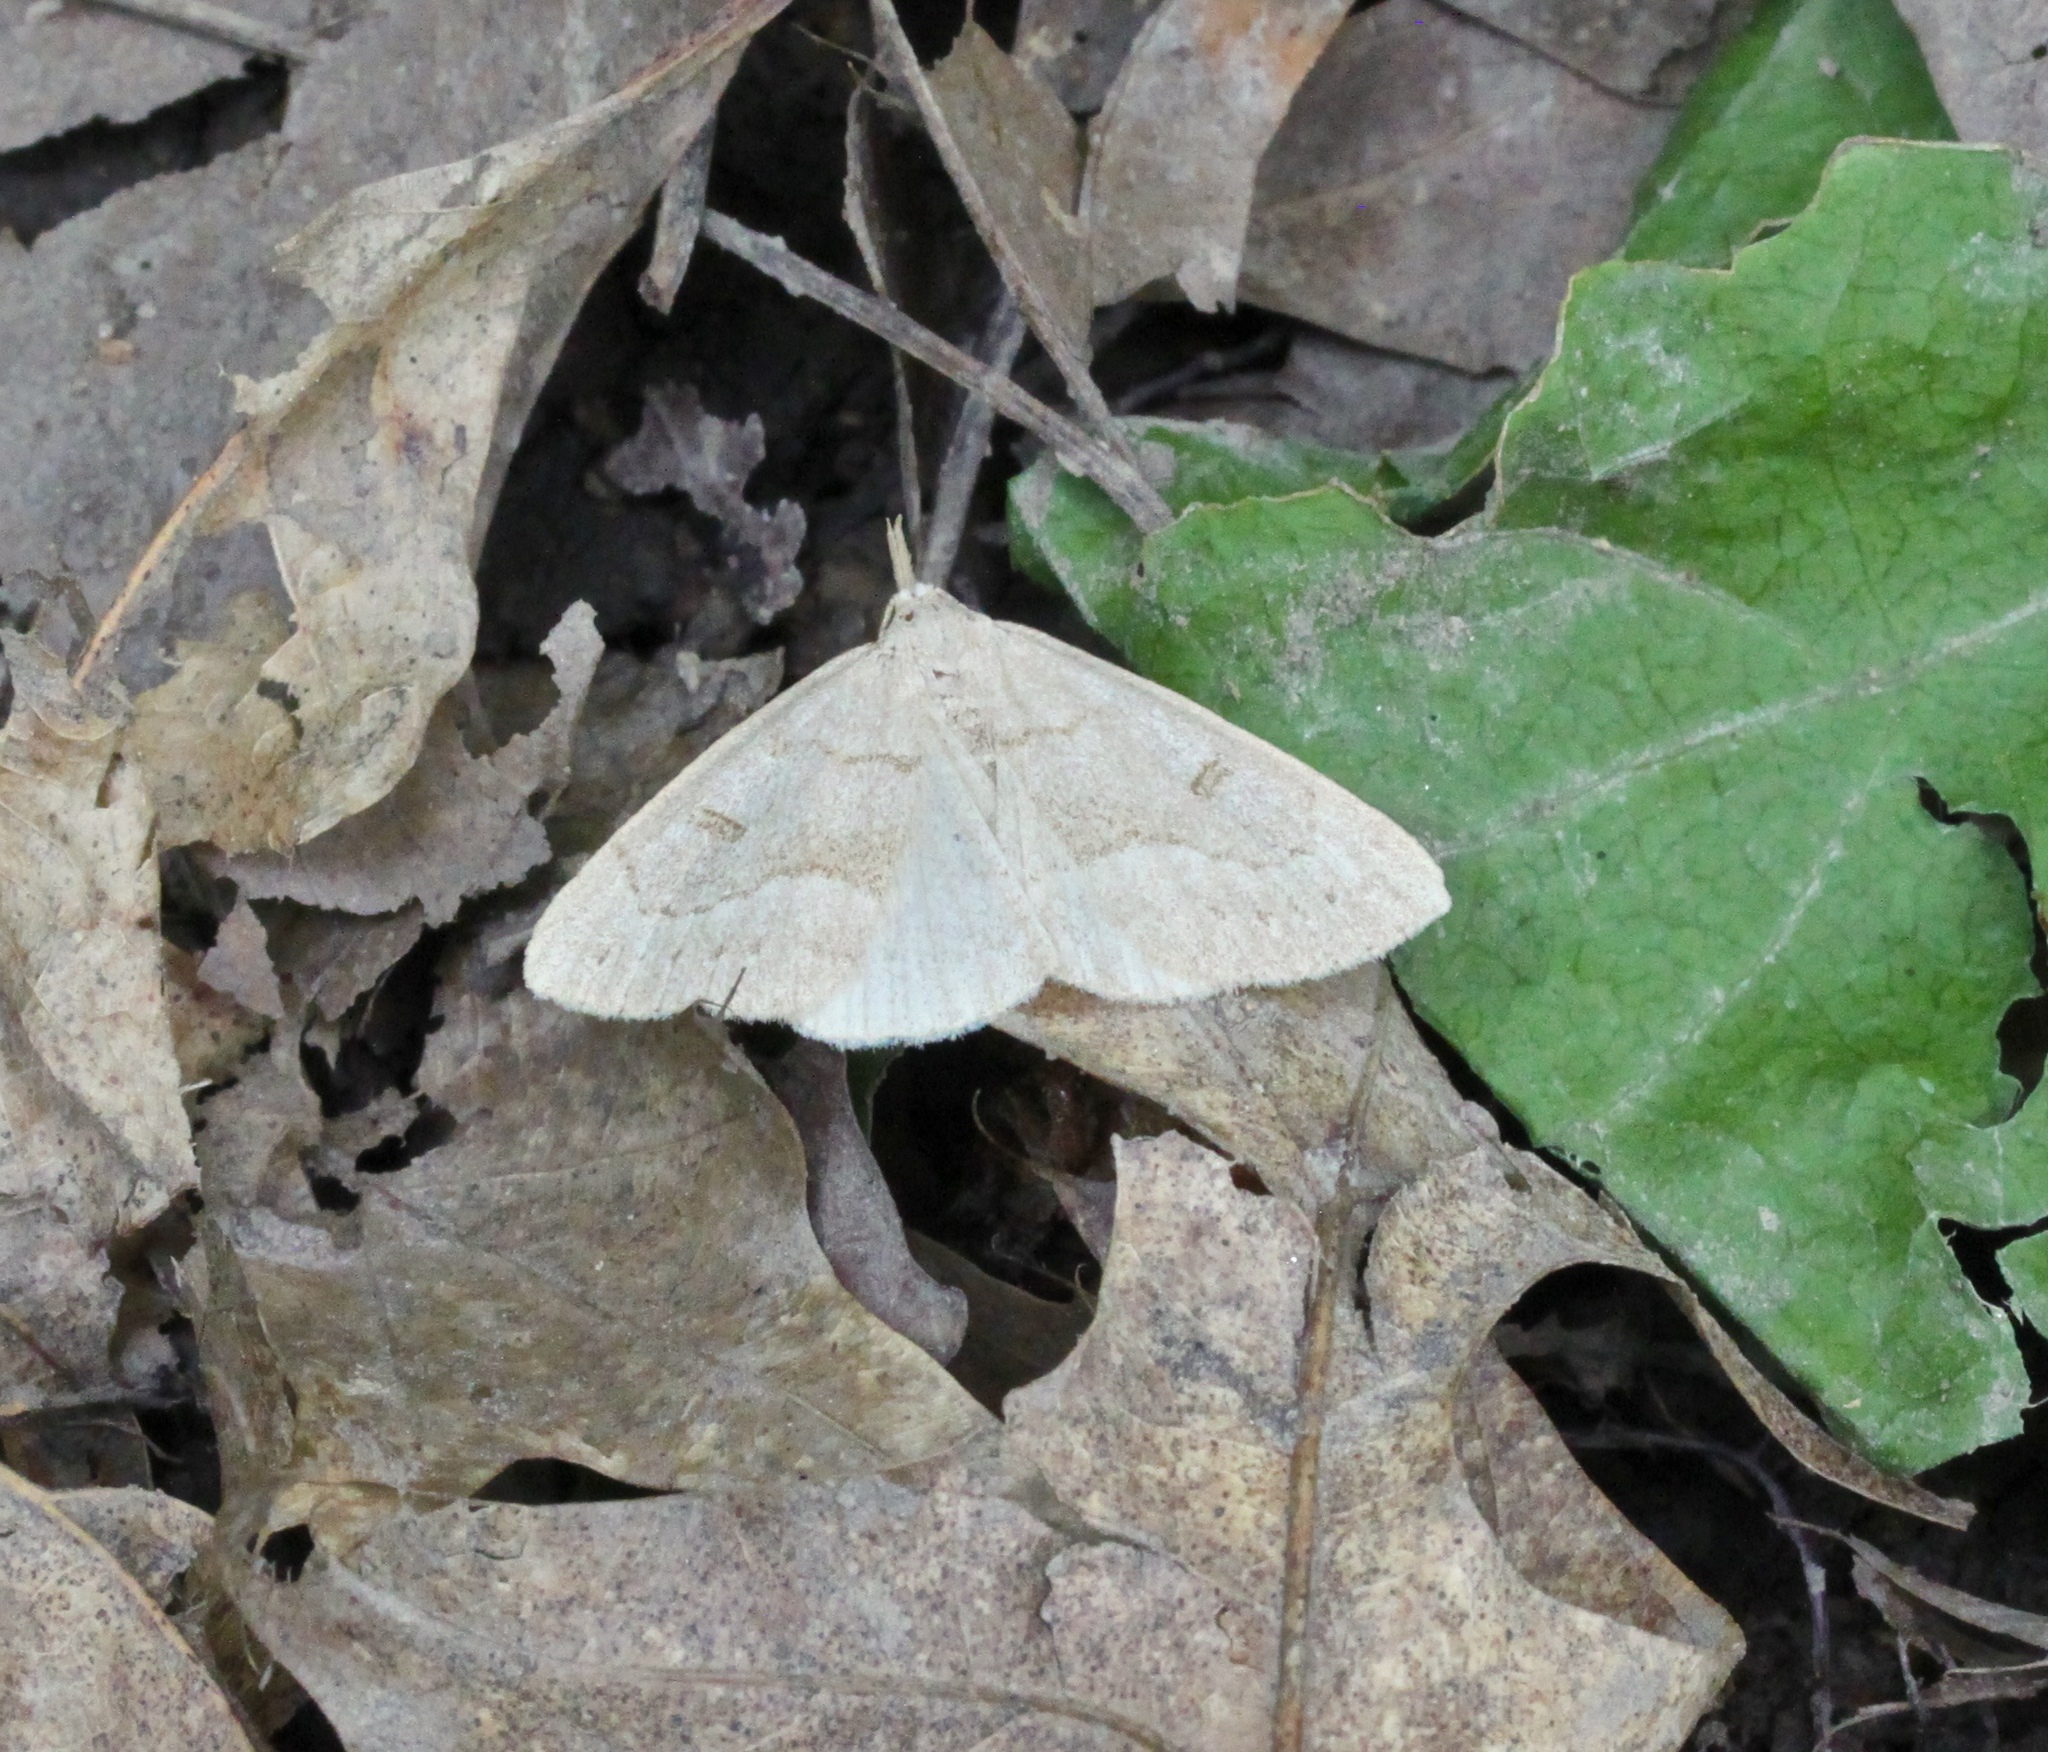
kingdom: Animalia
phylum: Arthropoda
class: Insecta
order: Lepidoptera
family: Erebidae
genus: Macrochilo
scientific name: Macrochilo morbidalis
